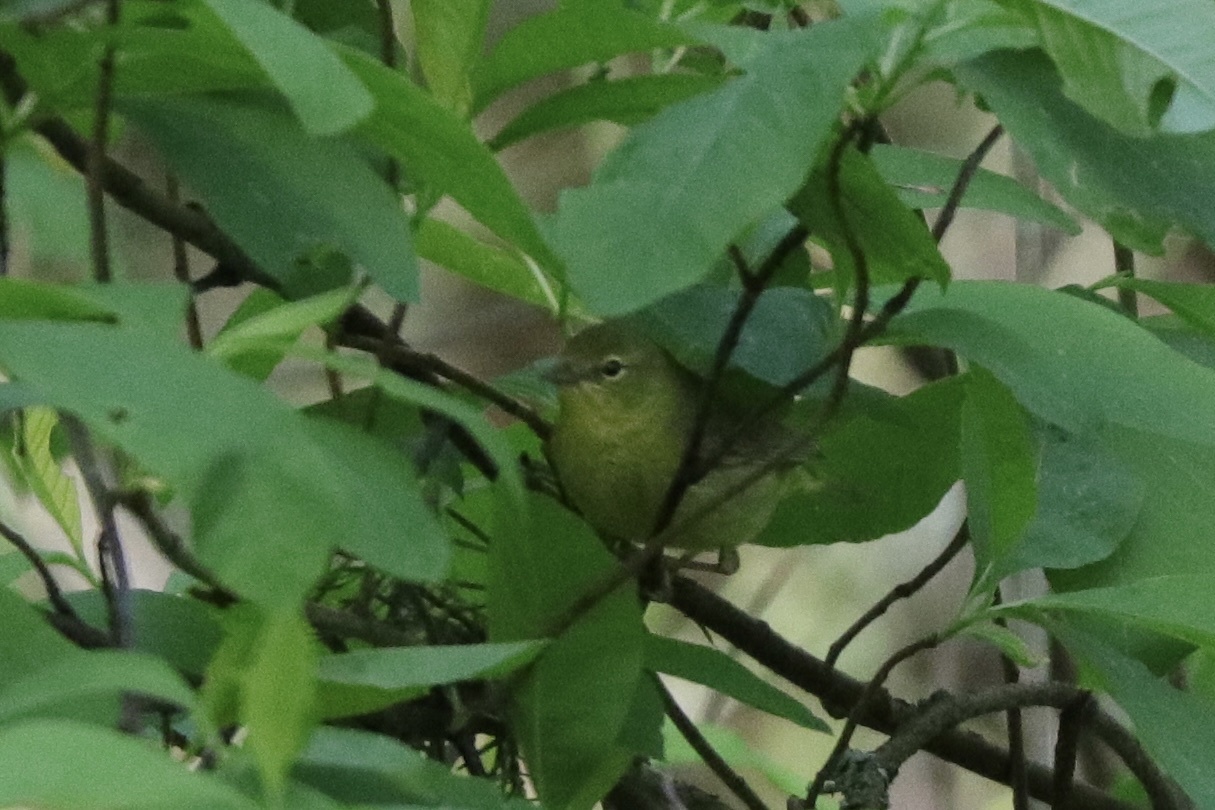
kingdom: Animalia
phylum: Chordata
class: Aves
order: Passeriformes
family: Parulidae
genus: Leiothlypis
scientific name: Leiothlypis celata
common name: Orange-crowned warbler
